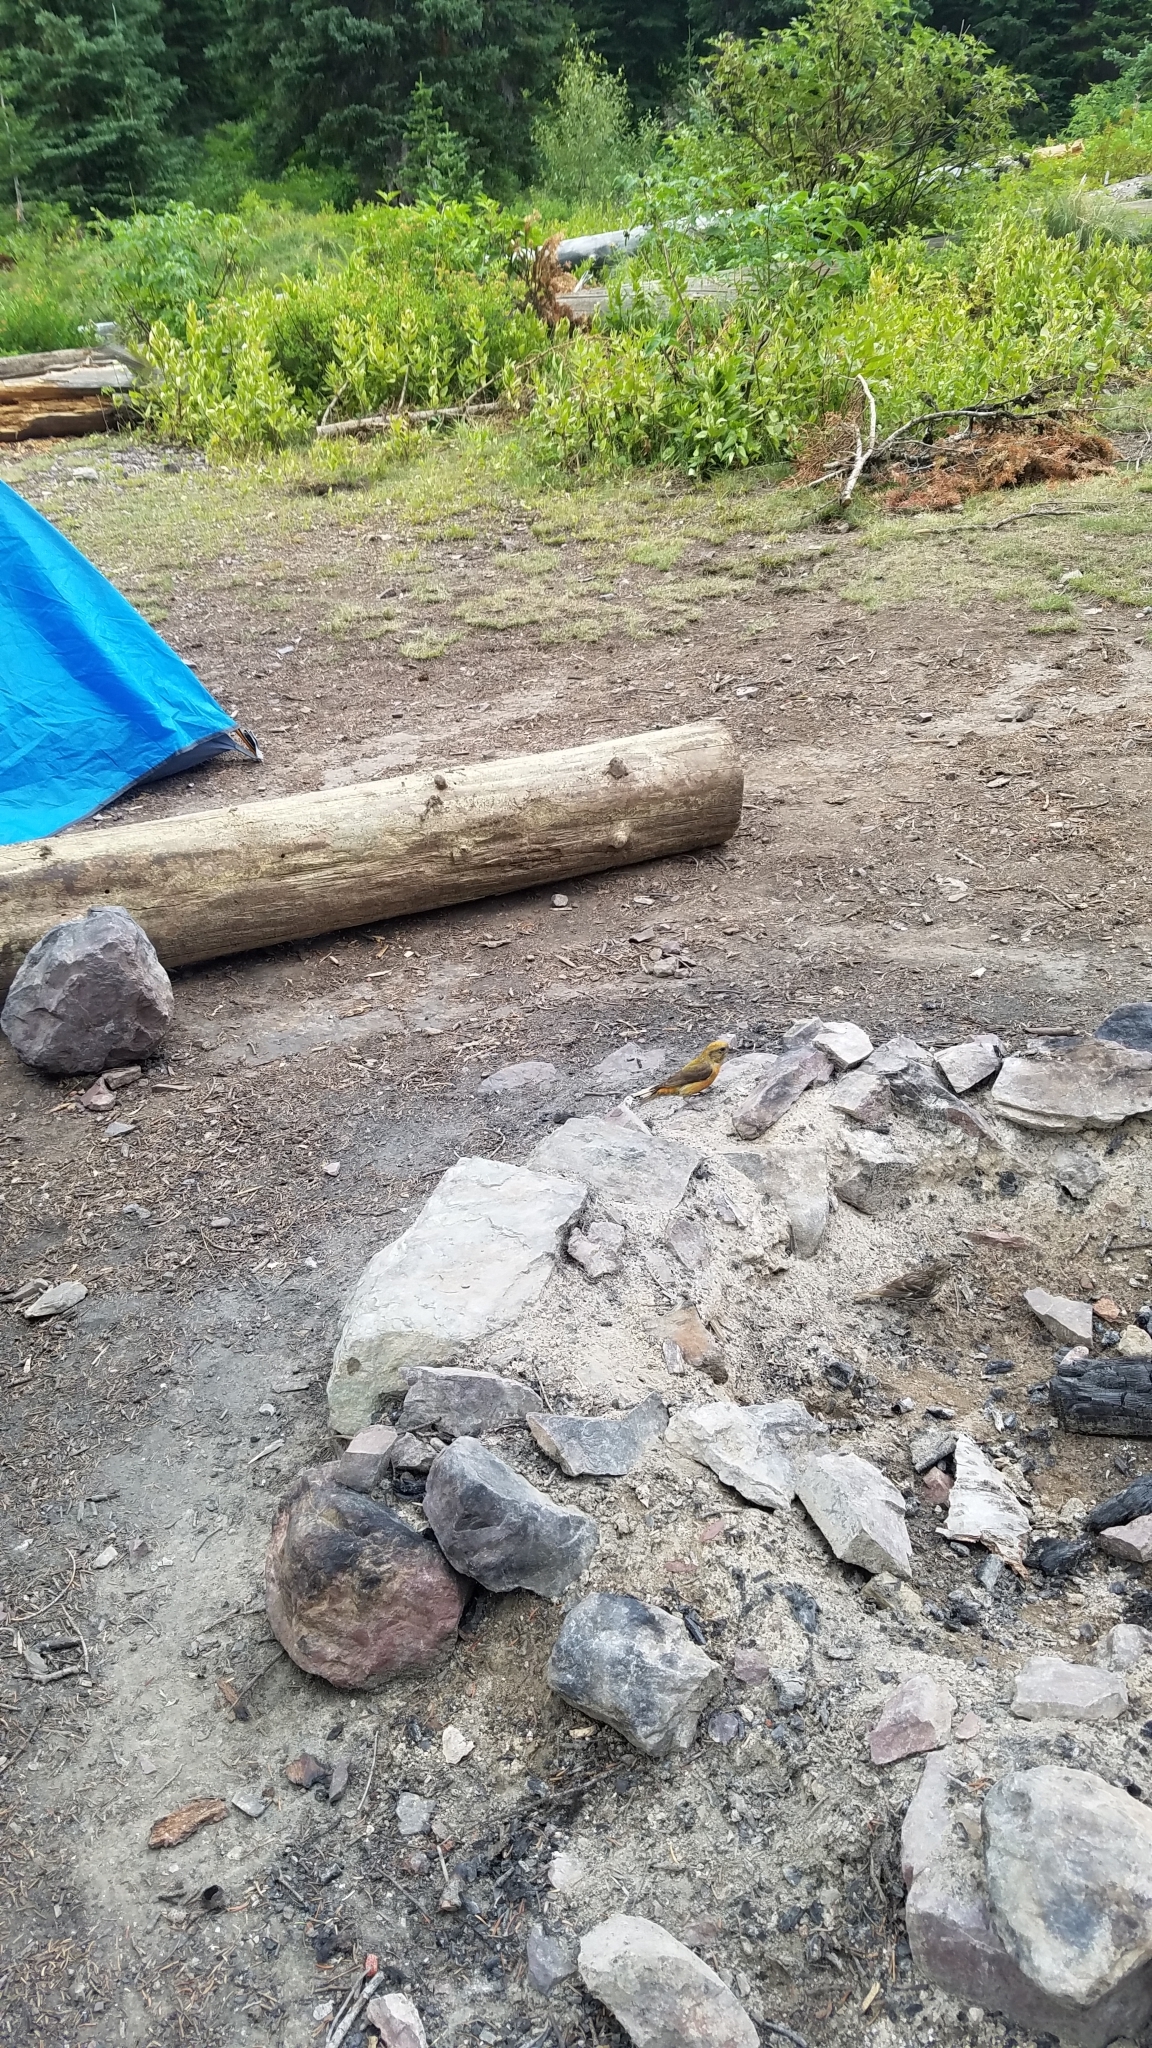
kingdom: Animalia
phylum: Chordata
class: Aves
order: Passeriformes
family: Fringillidae
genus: Loxia
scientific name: Loxia curvirostra
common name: Red crossbill
